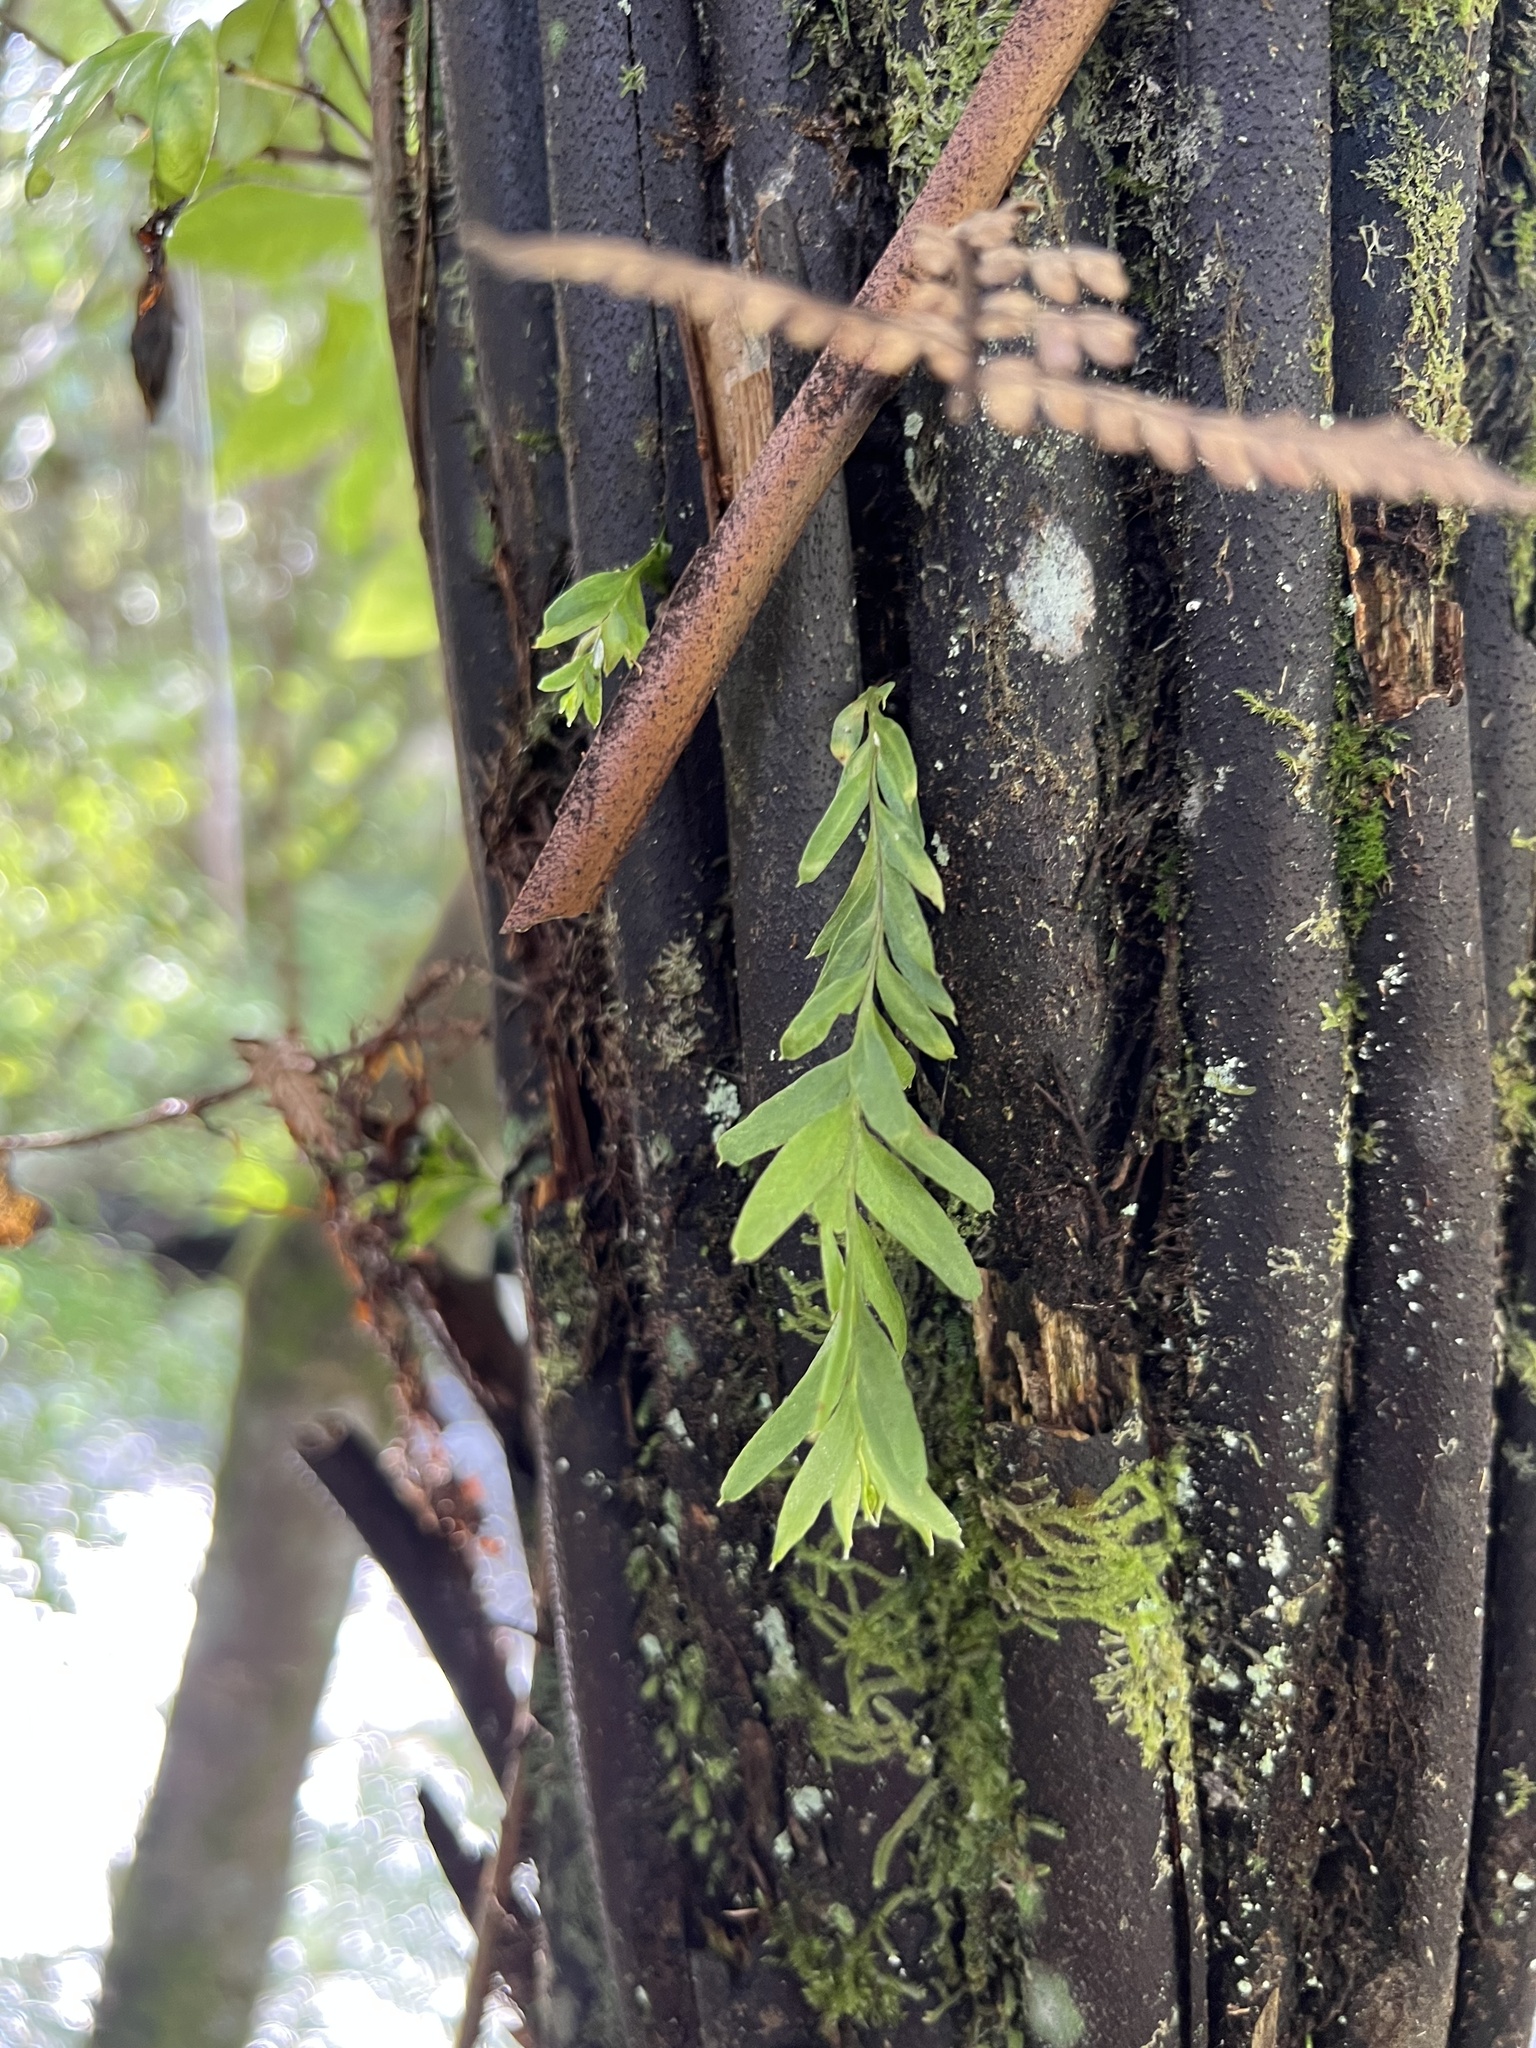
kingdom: Plantae
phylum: Tracheophyta
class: Polypodiopsida
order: Psilotales
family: Psilotaceae
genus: Tmesipteris
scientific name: Tmesipteris elongata
